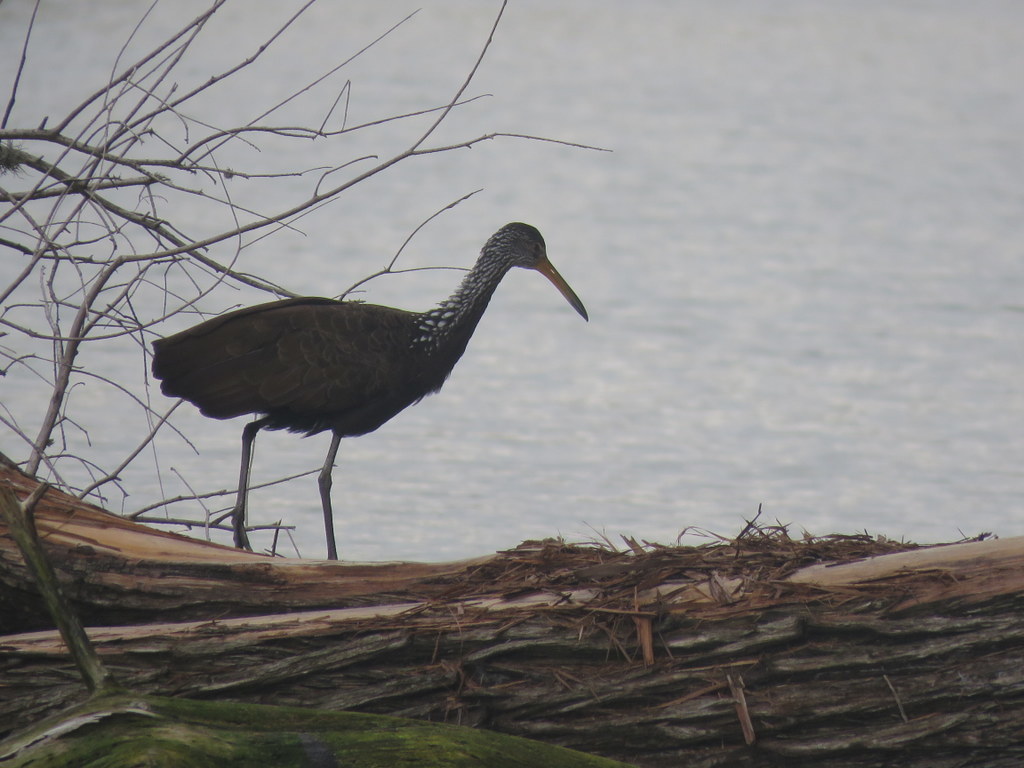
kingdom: Animalia
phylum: Chordata
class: Aves
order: Gruiformes
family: Aramidae
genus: Aramus
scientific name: Aramus guarauna
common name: Limpkin
